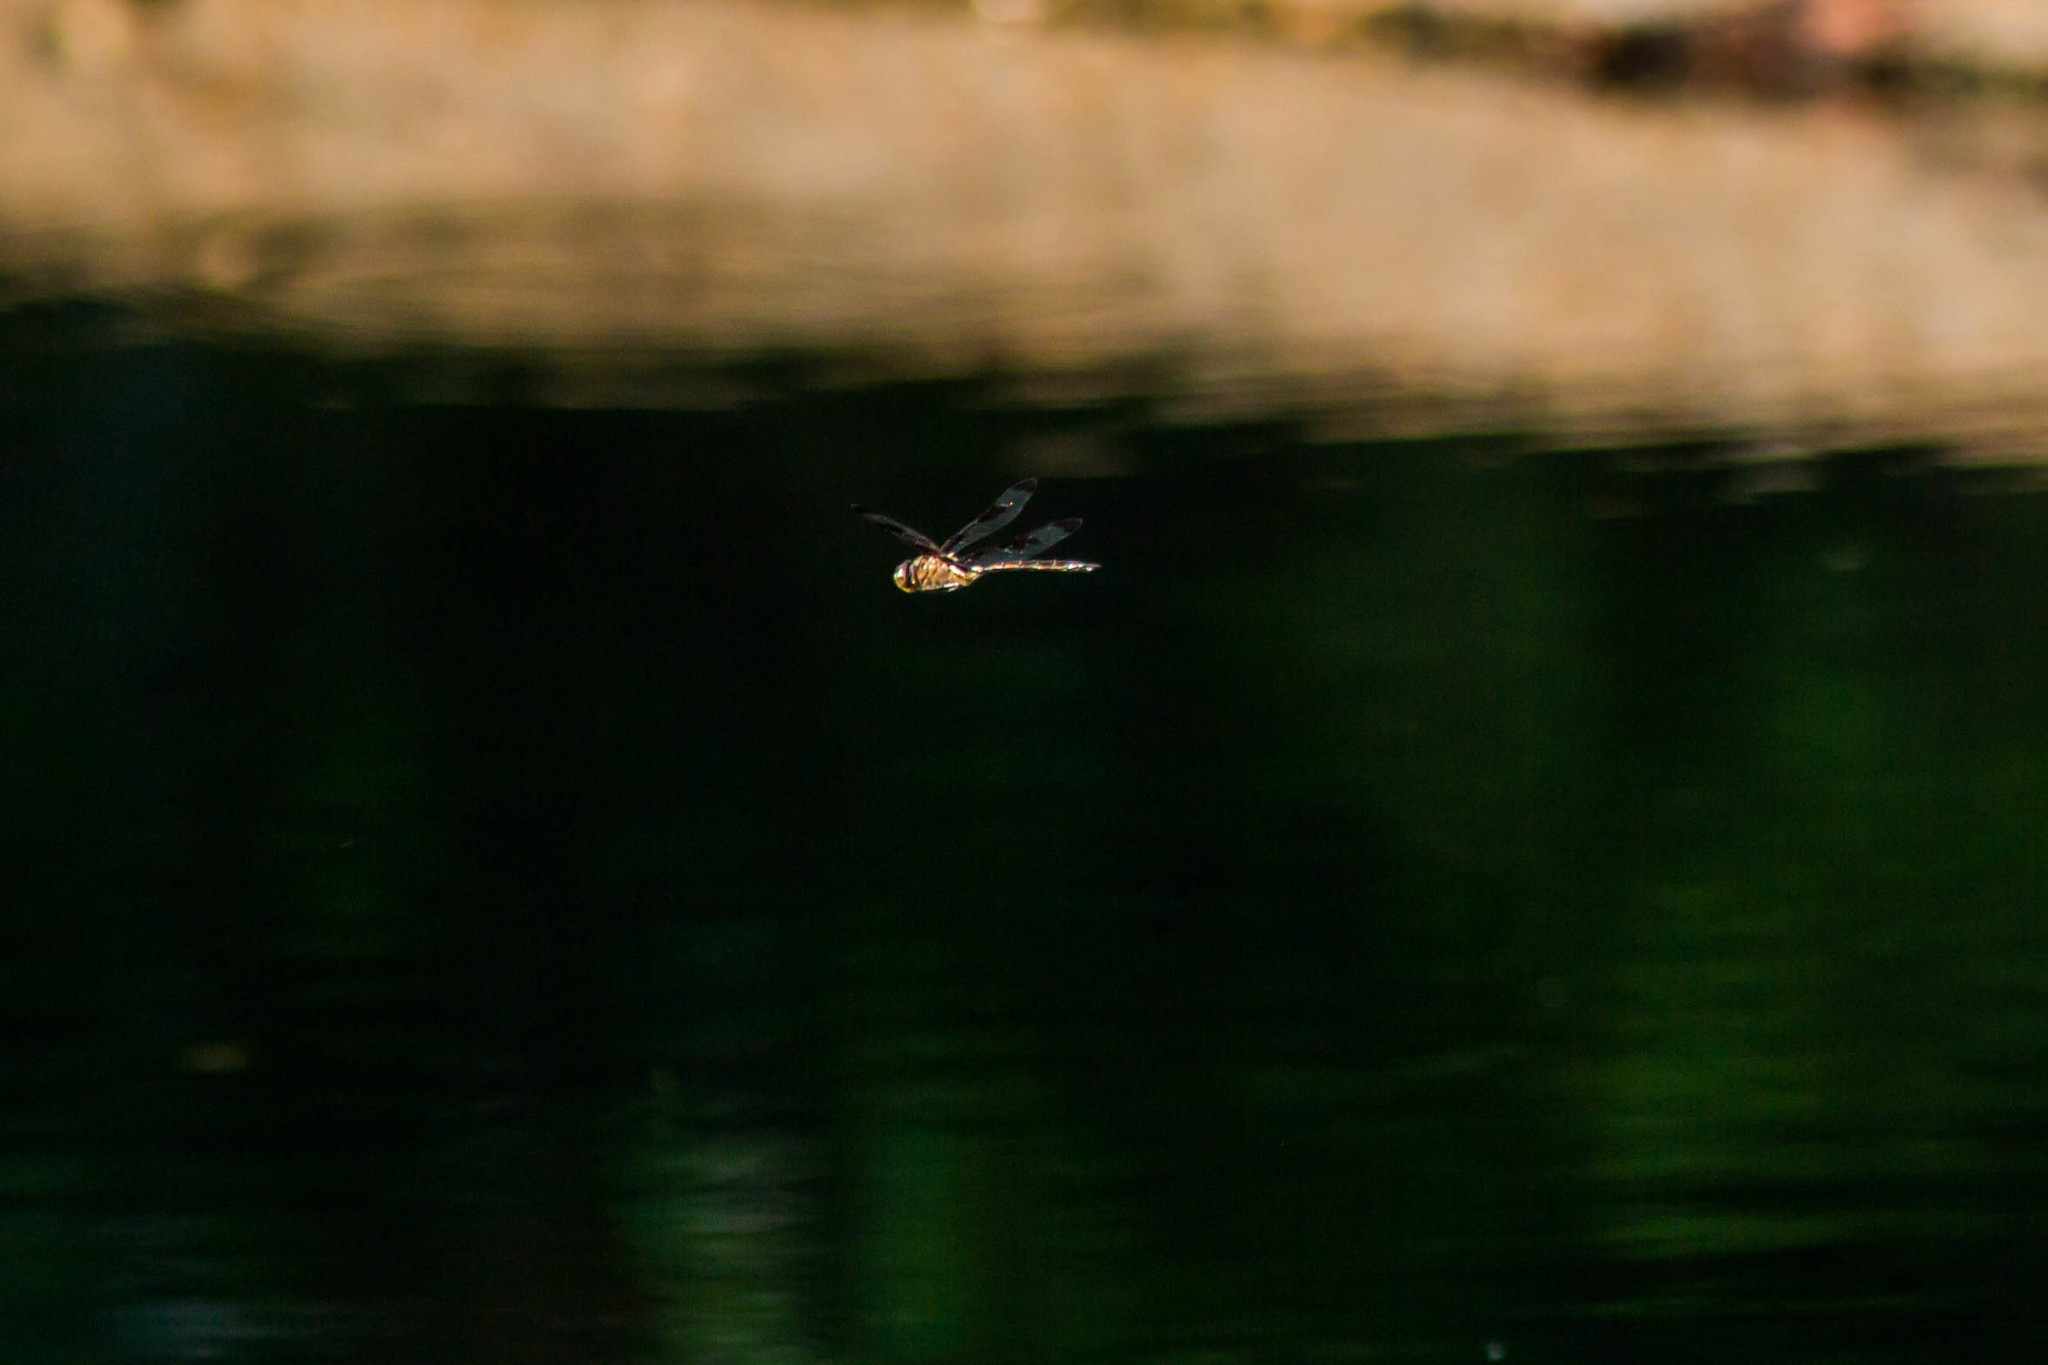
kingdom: Animalia
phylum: Arthropoda
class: Insecta
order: Odonata
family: Corduliidae
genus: Epitheca
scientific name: Epitheca princeps
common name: Prince baskettail
